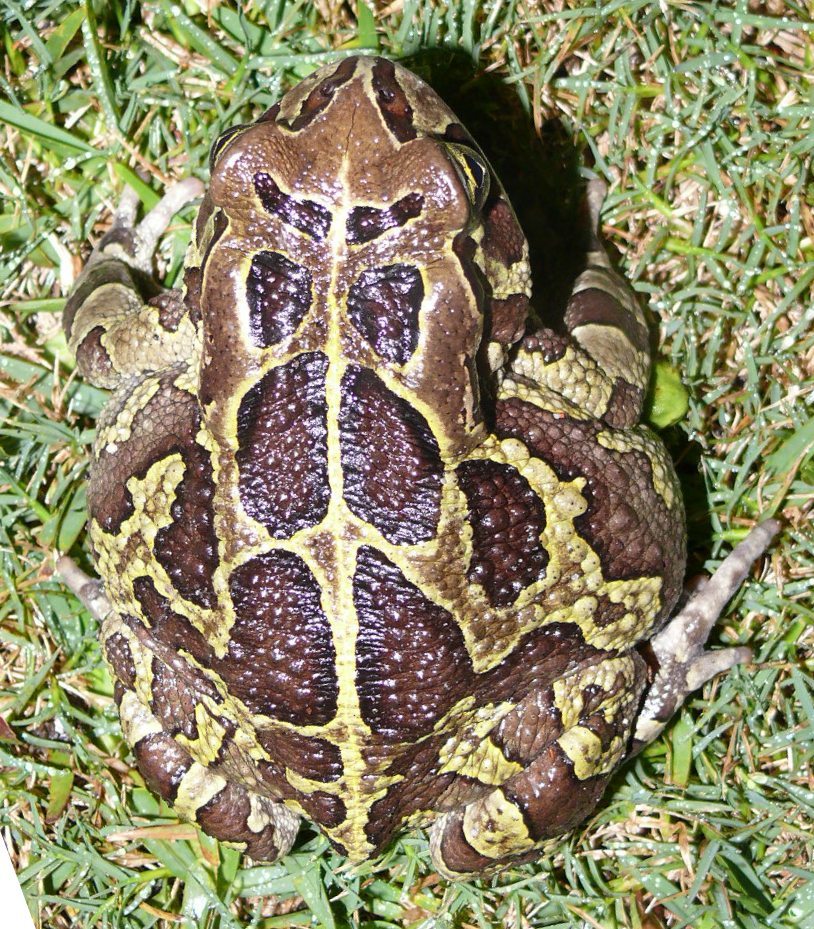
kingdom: Animalia
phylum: Chordata
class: Amphibia
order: Anura
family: Bufonidae
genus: Sclerophrys
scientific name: Sclerophrys pantherina
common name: Panther toad
